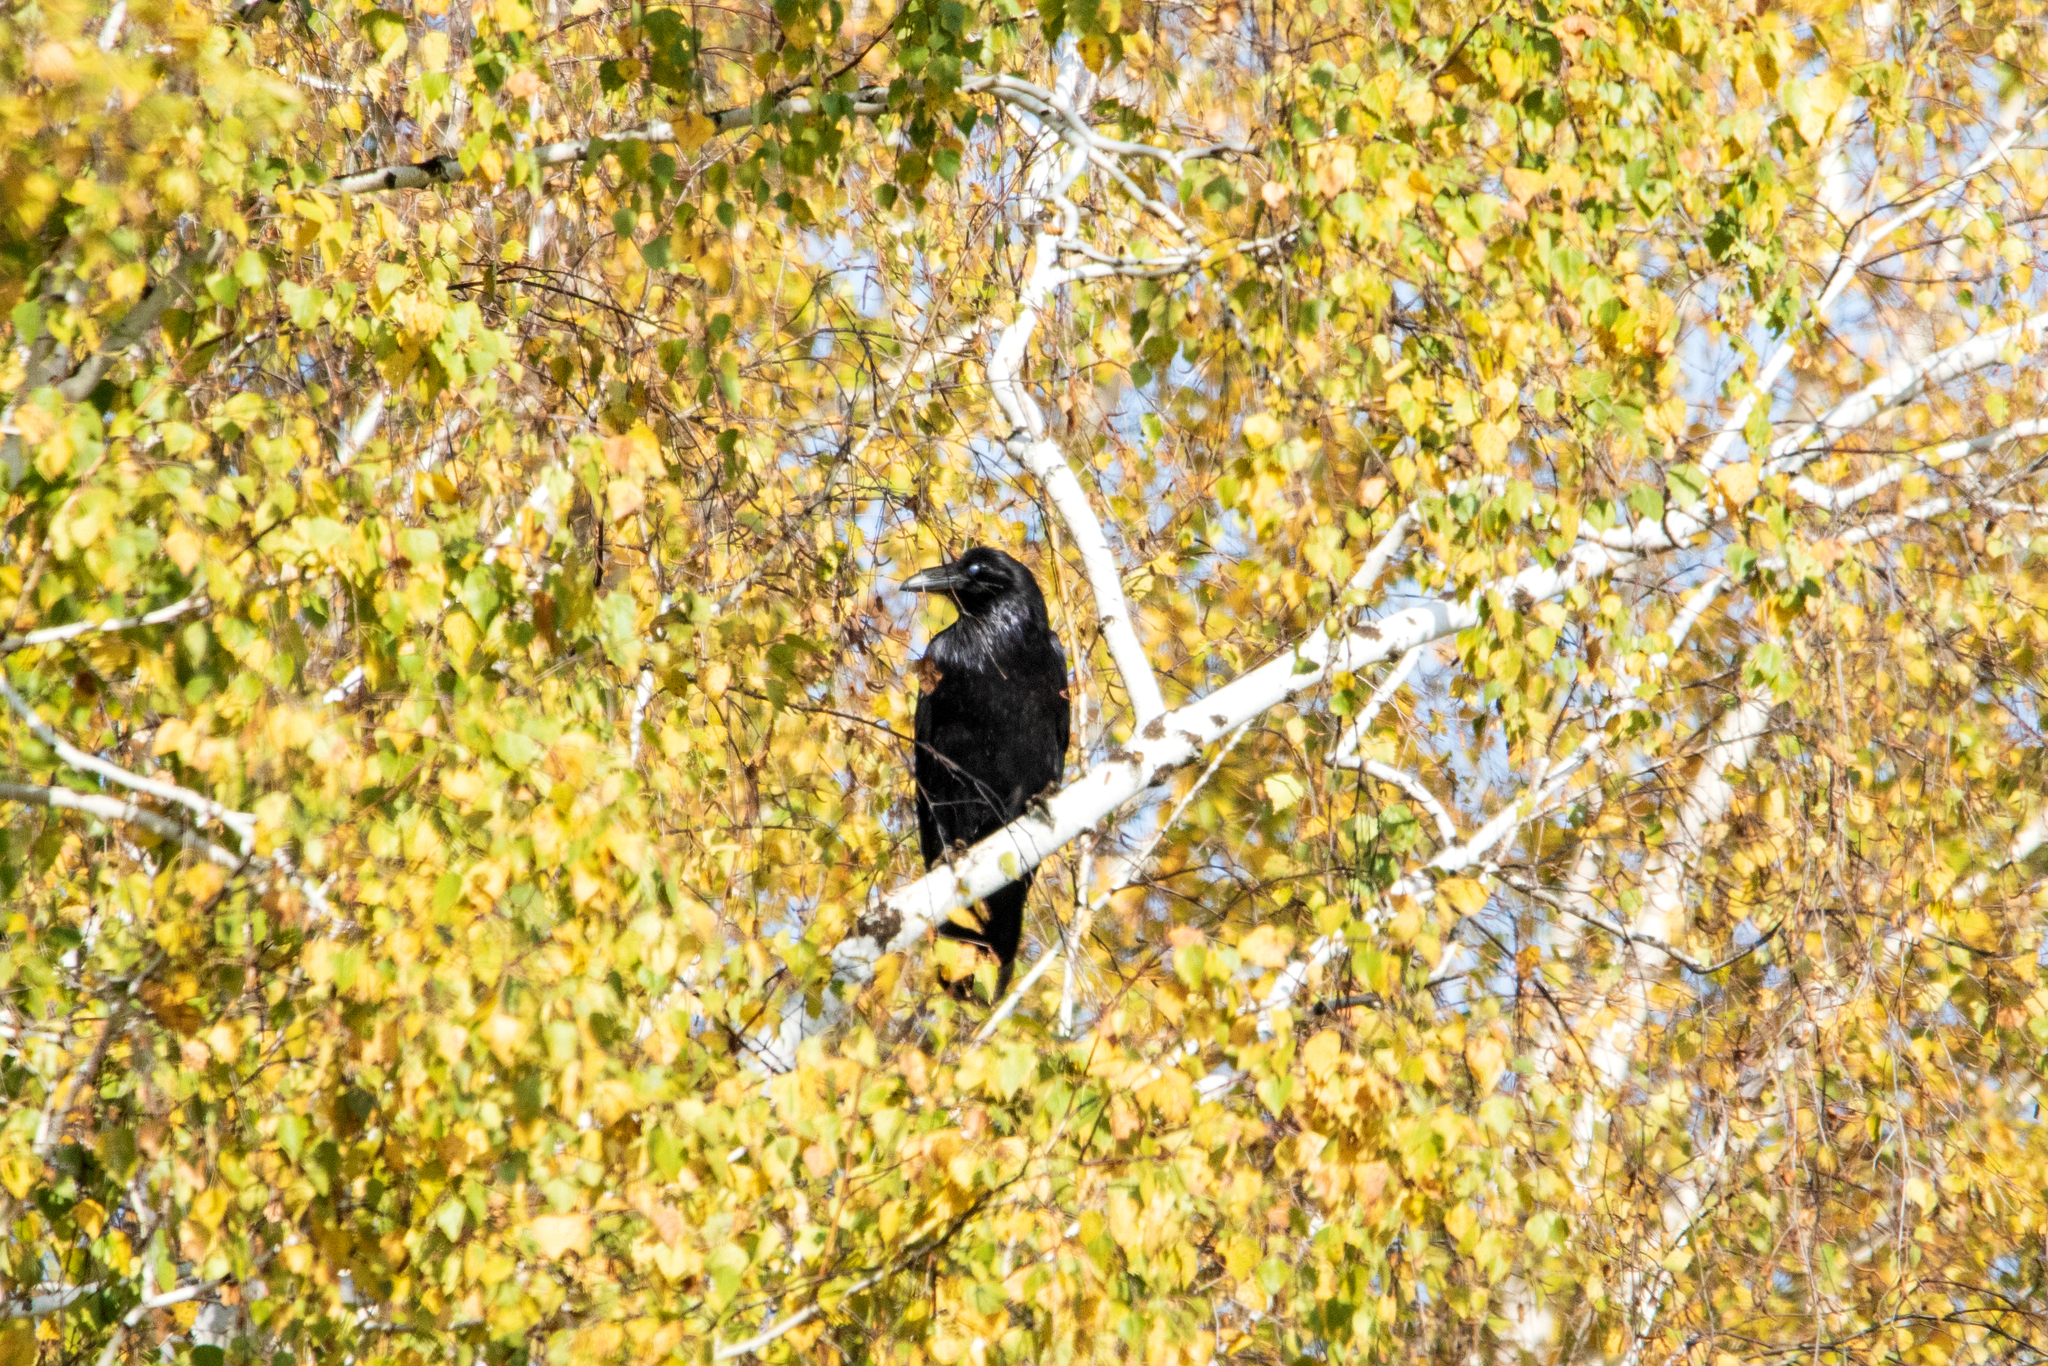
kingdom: Animalia
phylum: Chordata
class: Aves
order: Passeriformes
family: Corvidae
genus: Corvus
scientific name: Corvus corax
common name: Common raven
